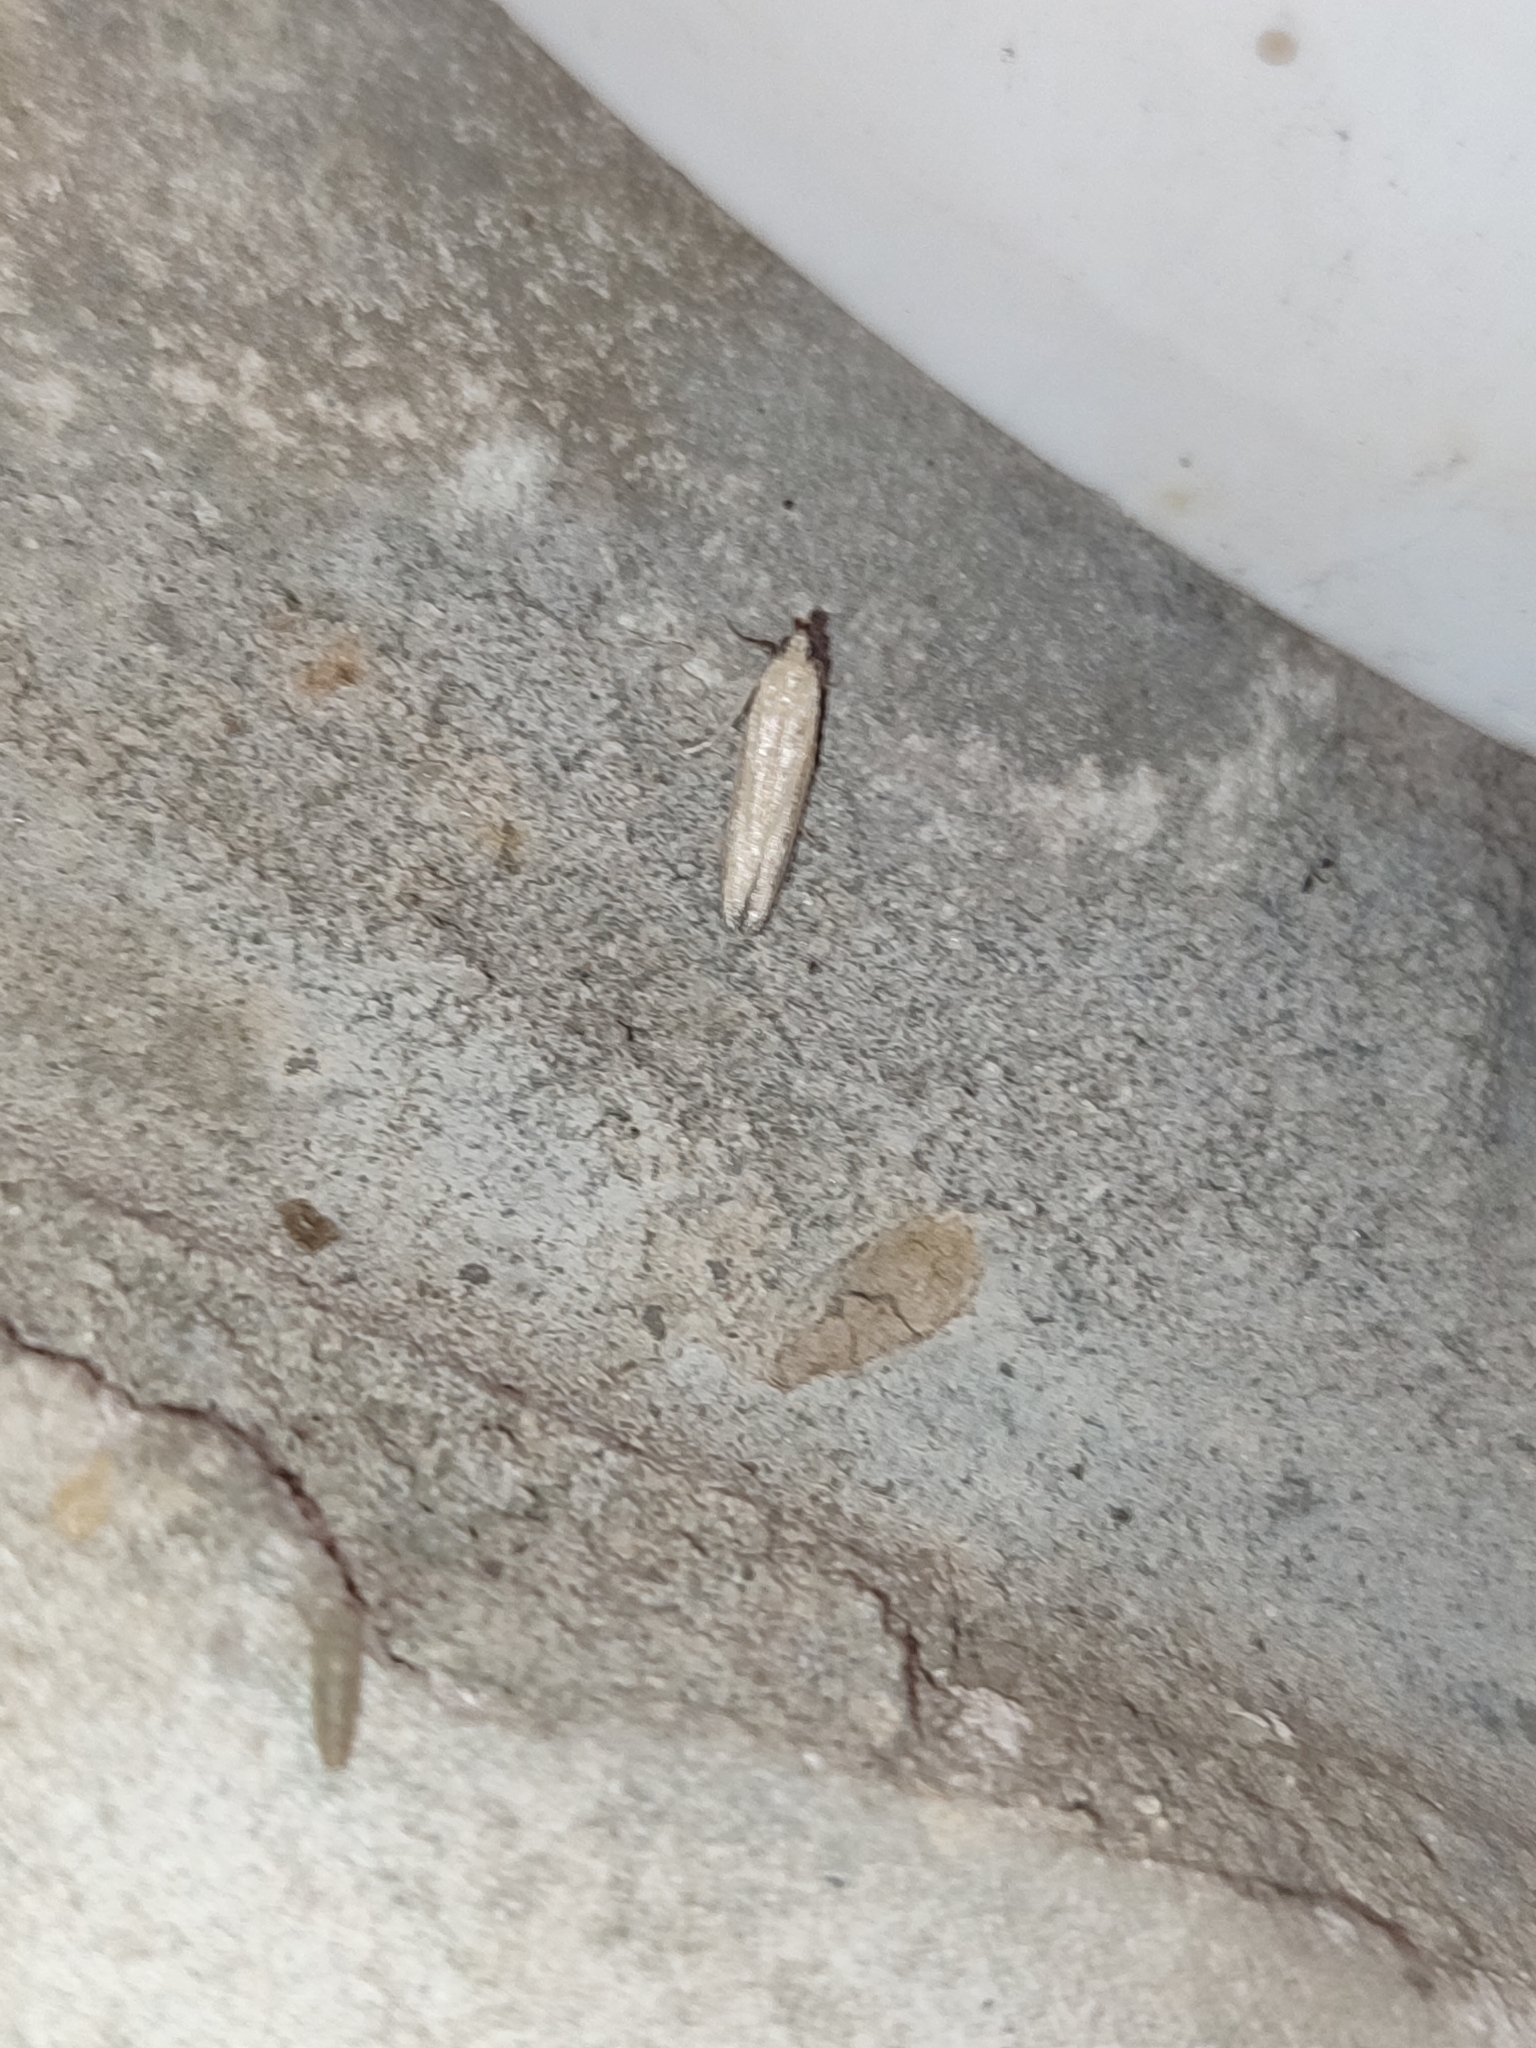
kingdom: Animalia
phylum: Arthropoda
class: Insecta
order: Lepidoptera
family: Pyralidae
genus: Hypsotropa
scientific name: Hypsotropa unipunctella
